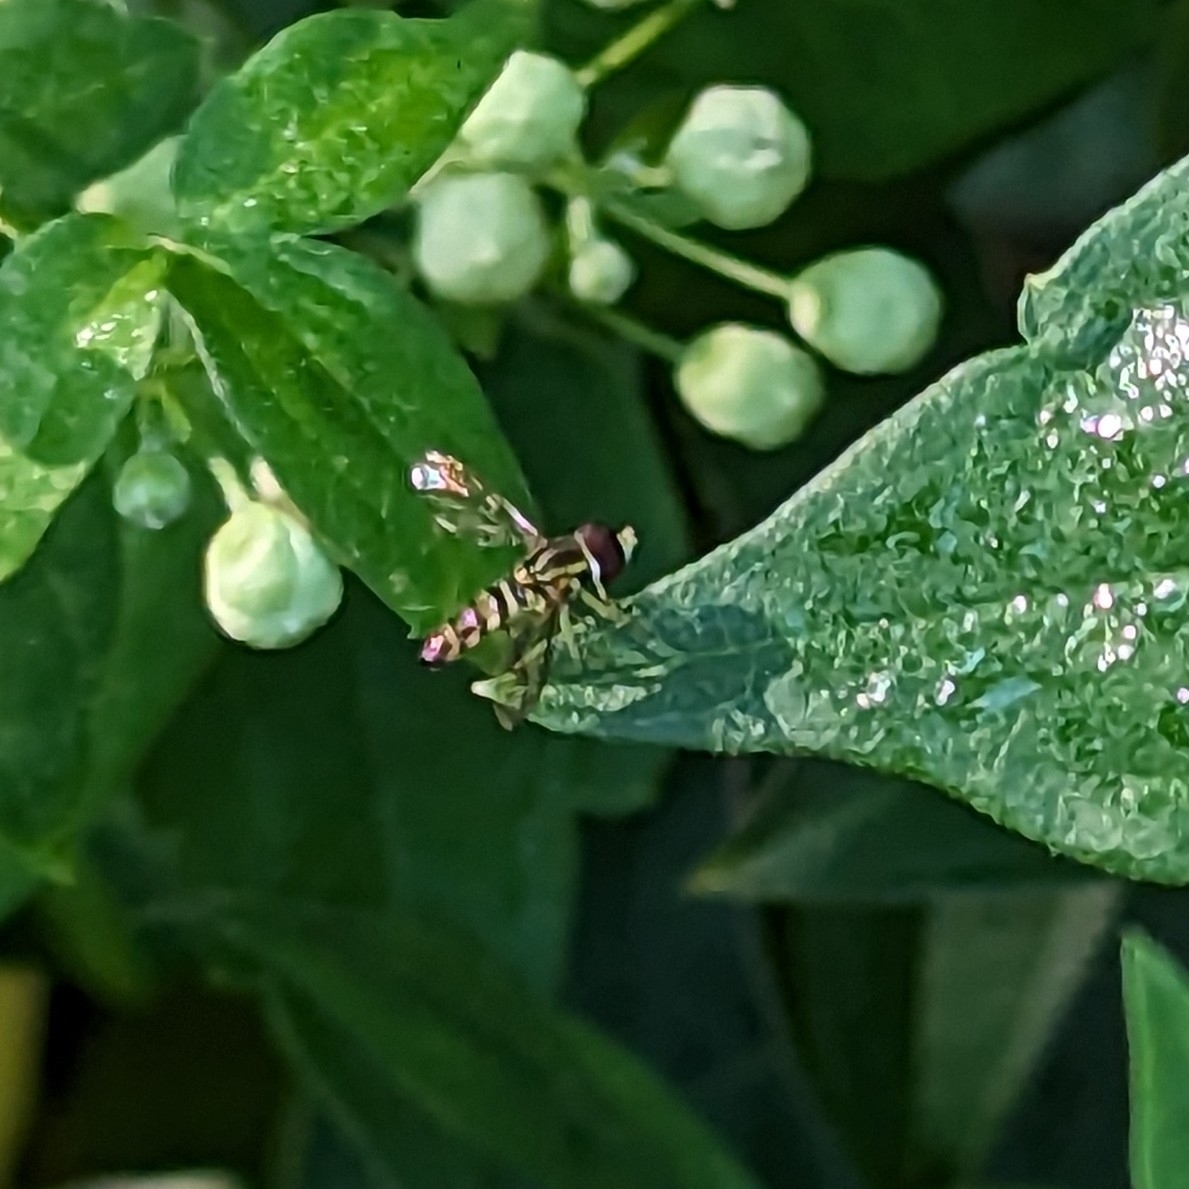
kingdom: Animalia
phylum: Arthropoda
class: Insecta
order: Diptera
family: Syrphidae
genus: Toxomerus
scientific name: Toxomerus geminatus
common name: Eastern calligrapher
